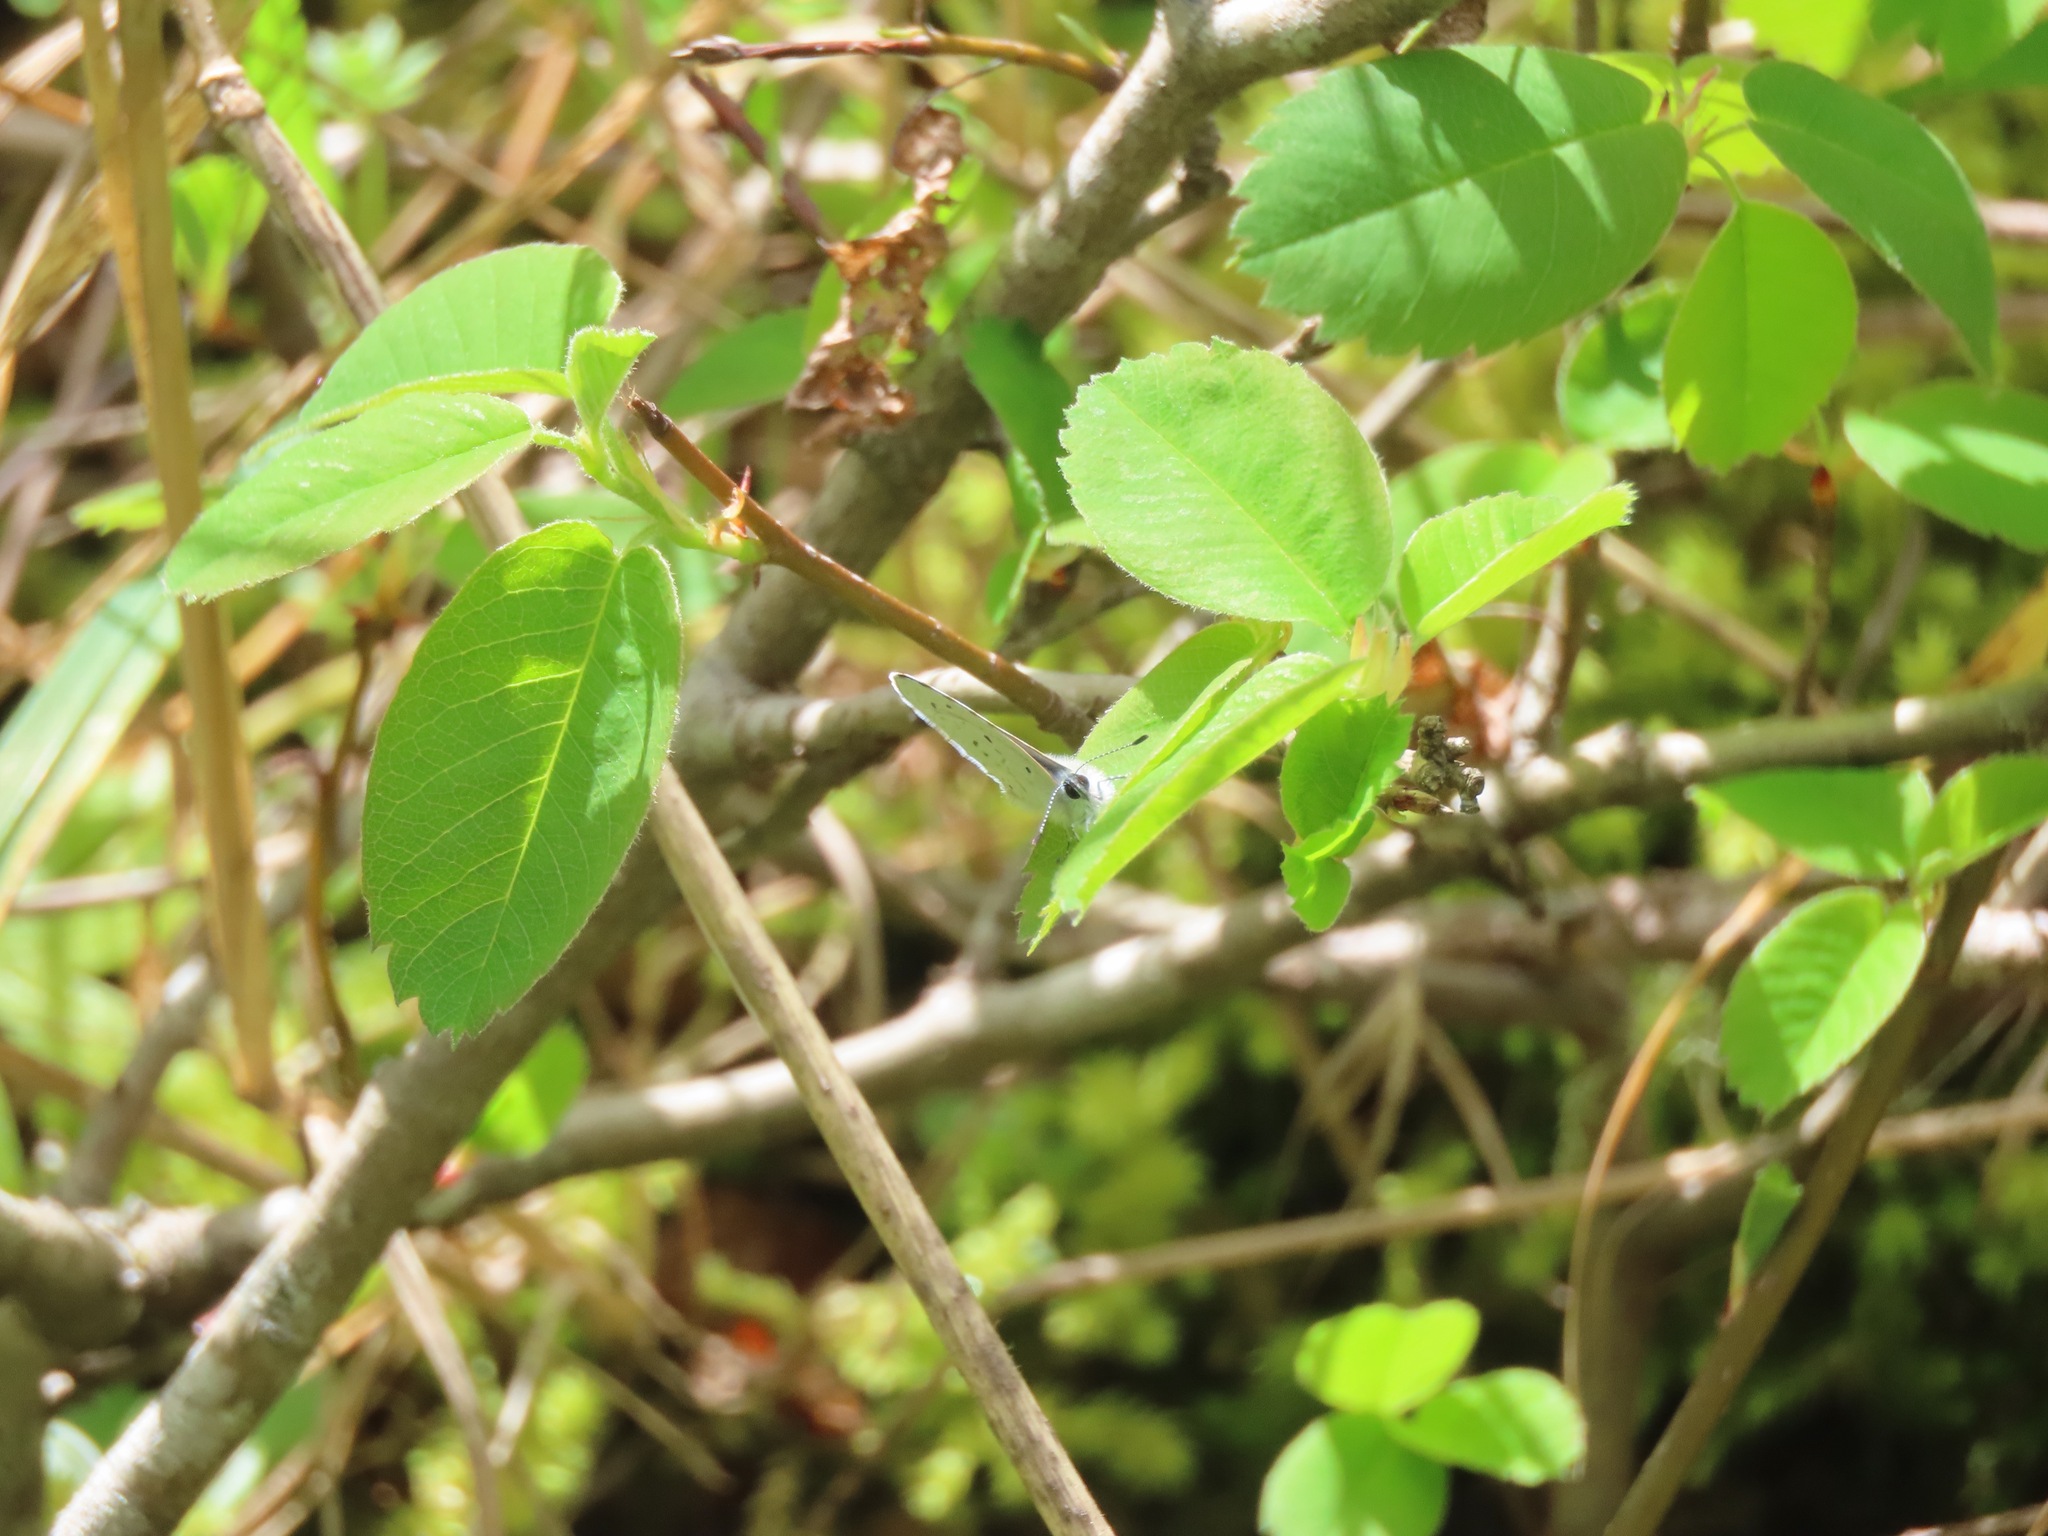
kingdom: Animalia
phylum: Arthropoda
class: Insecta
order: Lepidoptera
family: Lycaenidae
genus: Celastrina
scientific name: Celastrina ladon
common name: Spring azure
